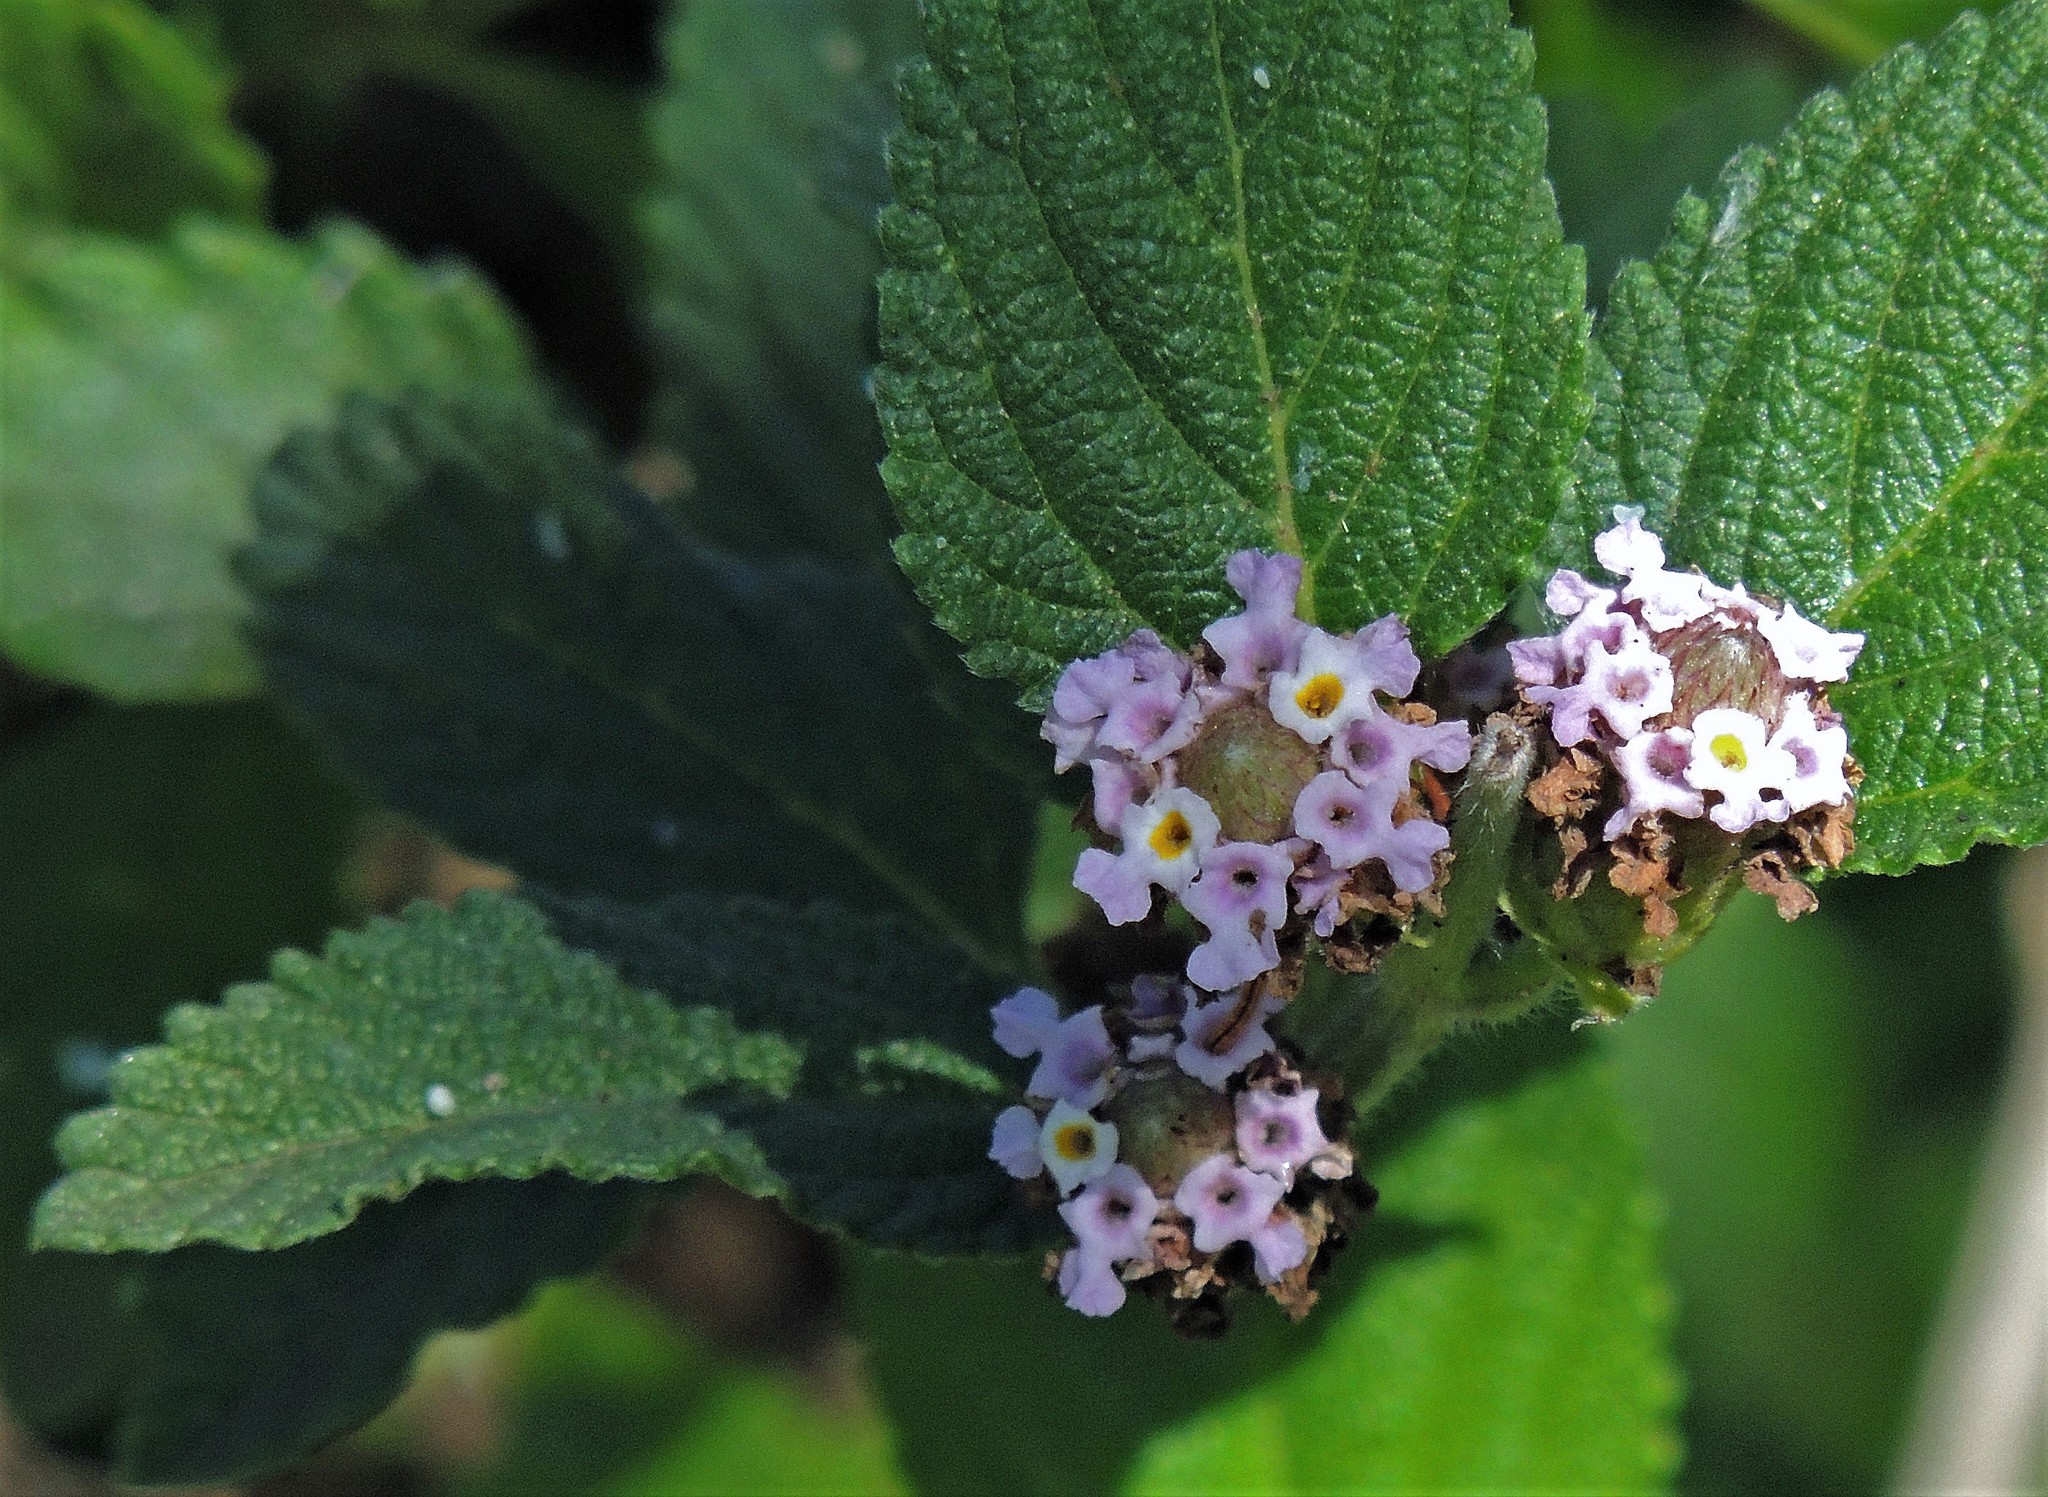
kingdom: Plantae
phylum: Tracheophyta
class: Magnoliopsida
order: Lamiales
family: Verbenaceae
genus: Lippia
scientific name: Lippia alba
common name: Bushy matgrass
